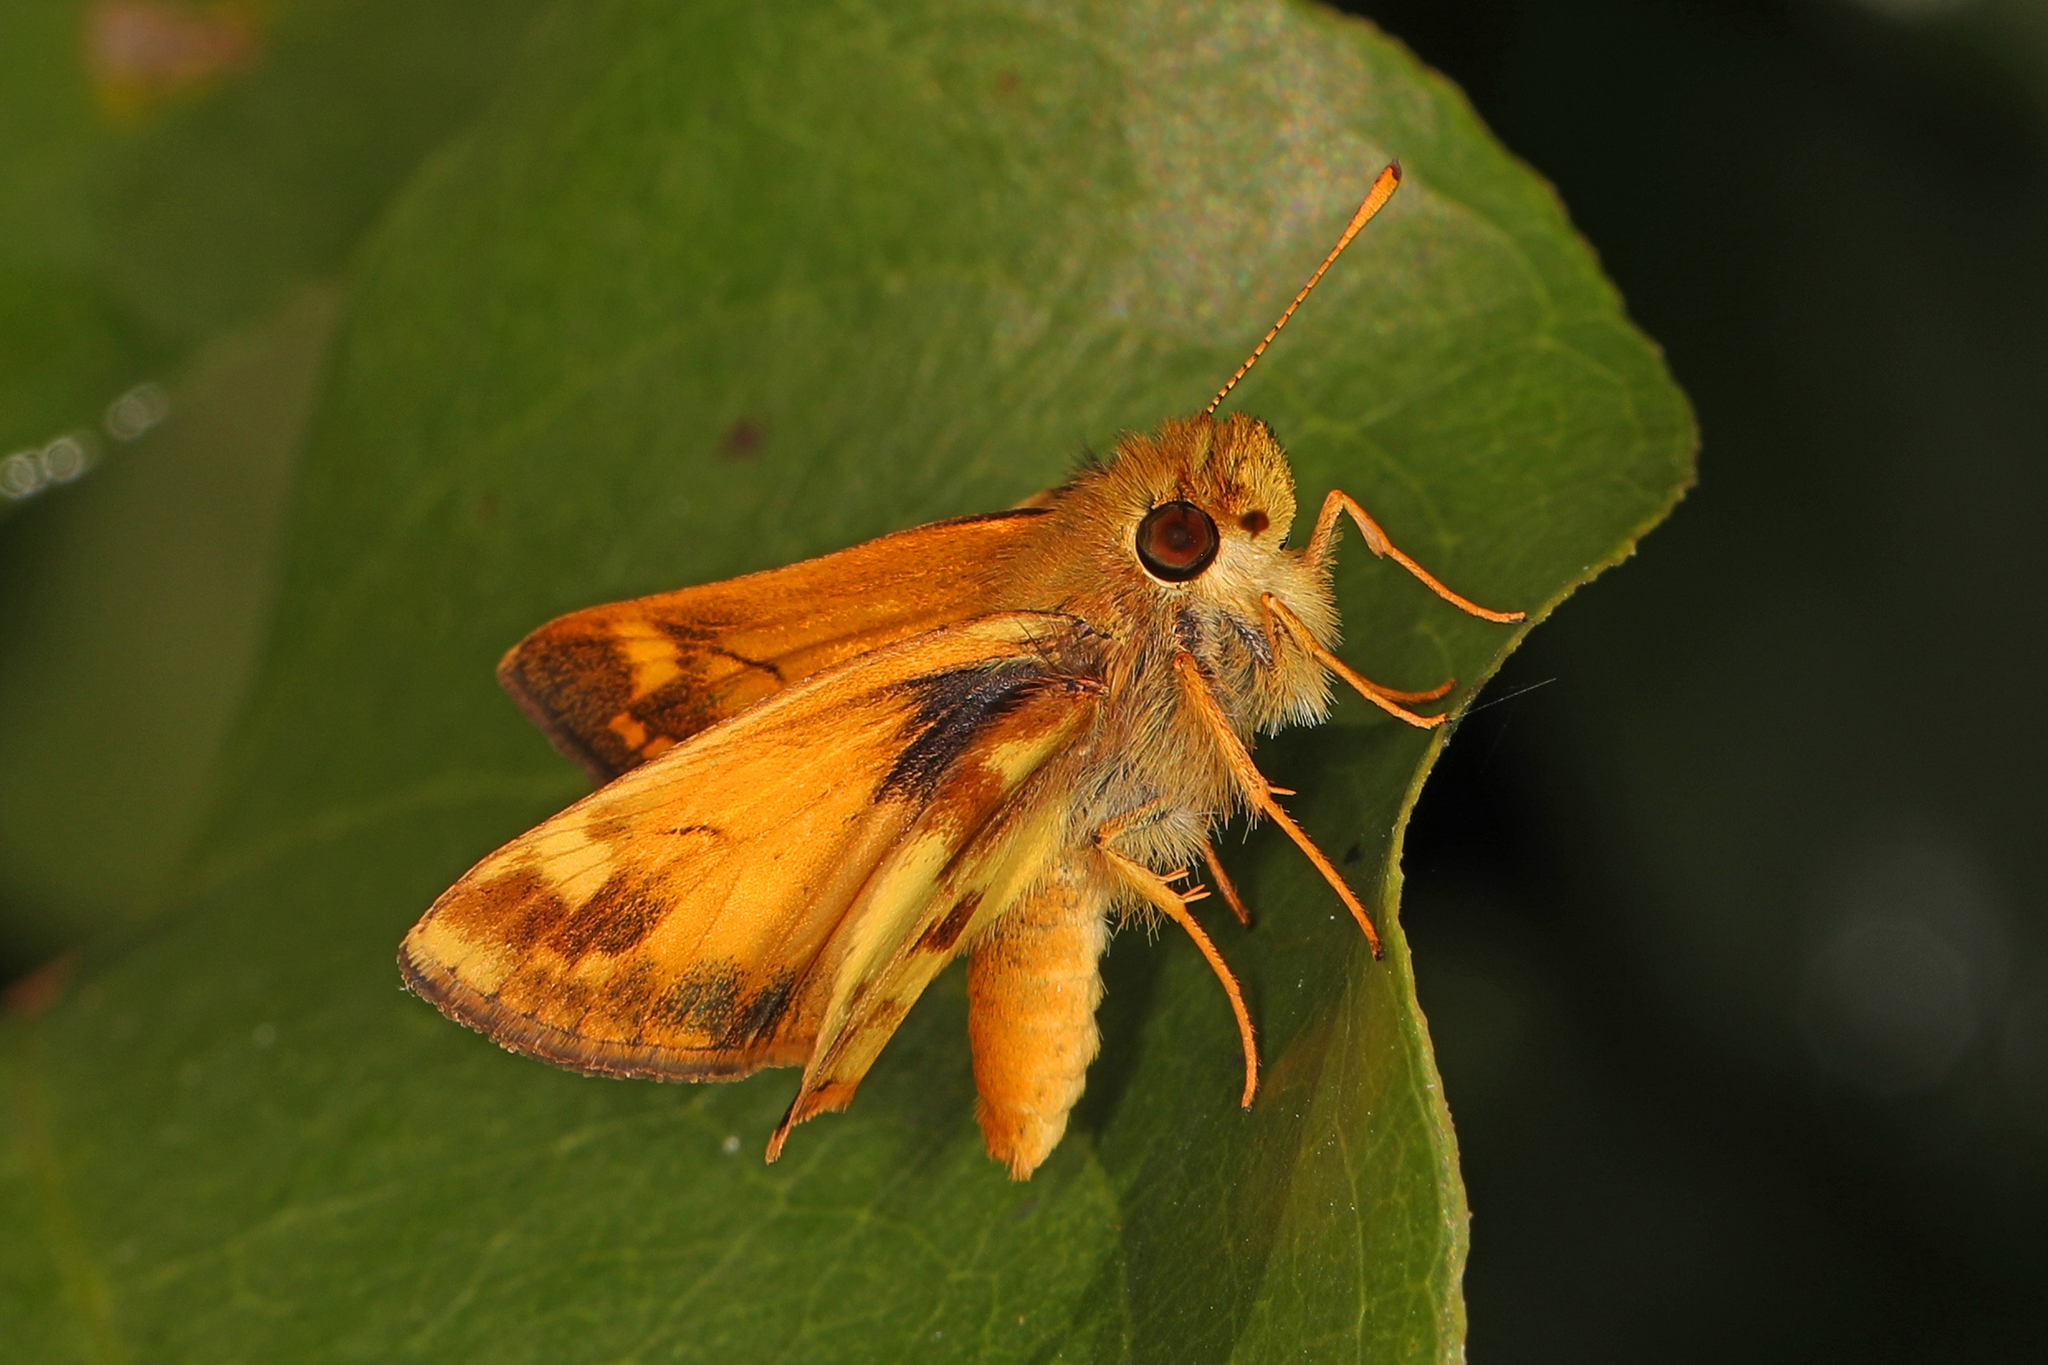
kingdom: Animalia
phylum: Arthropoda
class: Insecta
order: Lepidoptera
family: Hesperiidae
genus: Lon
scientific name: Lon zabulon
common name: Zabulon skipper
